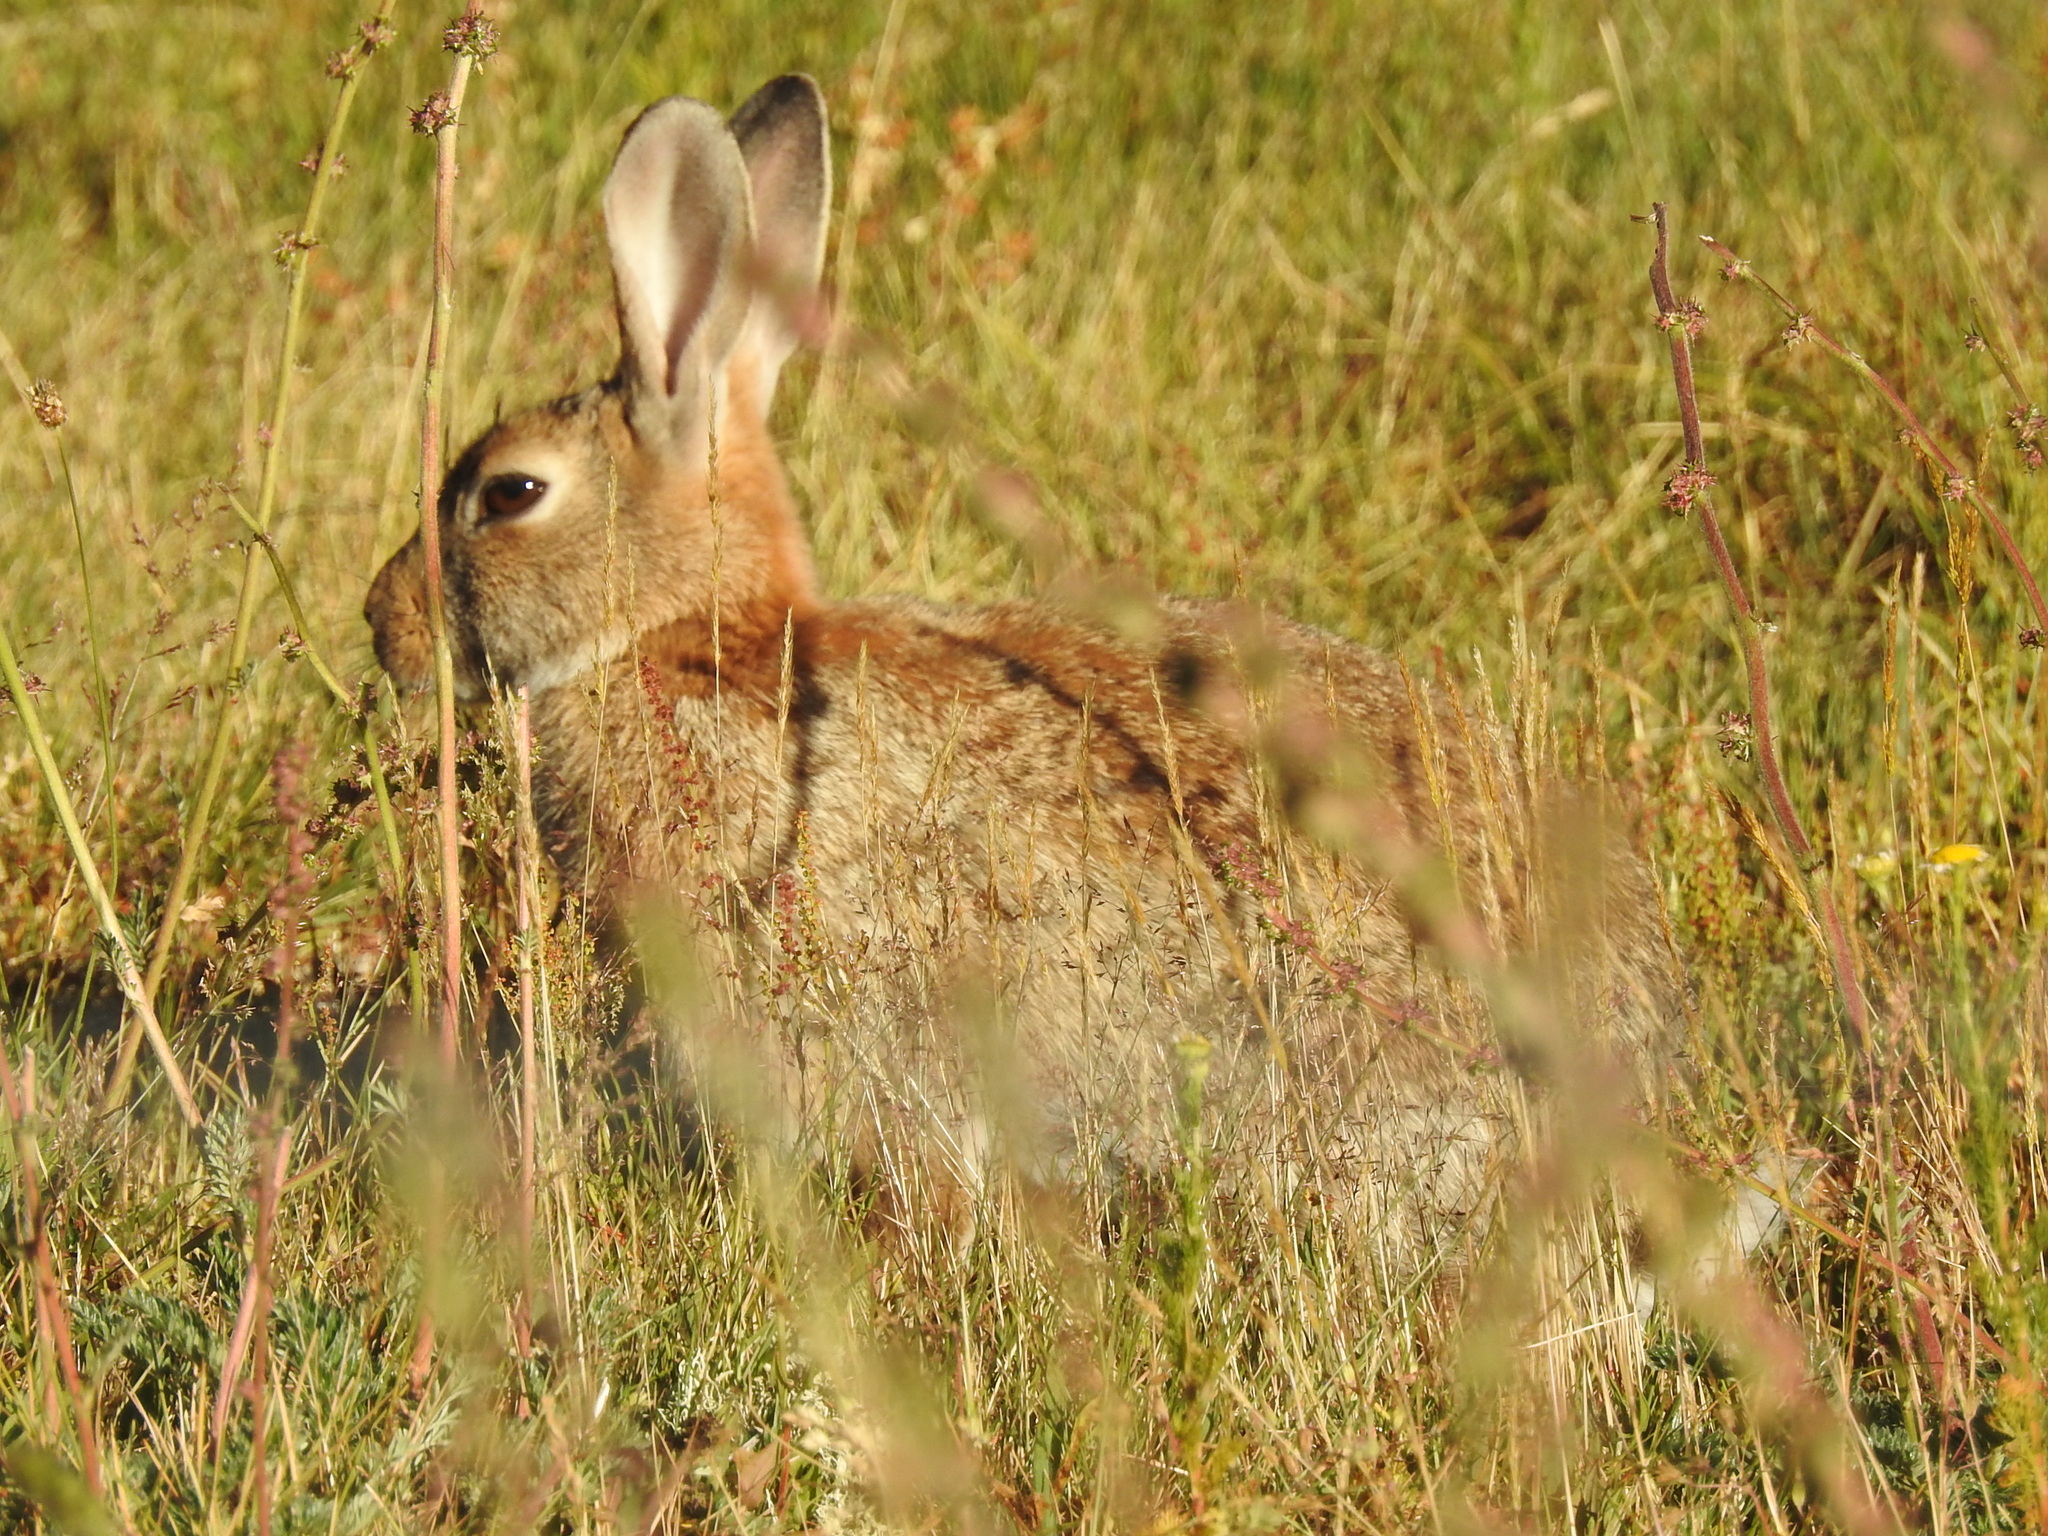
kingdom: Animalia
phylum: Chordata
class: Mammalia
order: Lagomorpha
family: Leporidae
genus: Oryctolagus
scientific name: Oryctolagus cuniculus
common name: European rabbit
